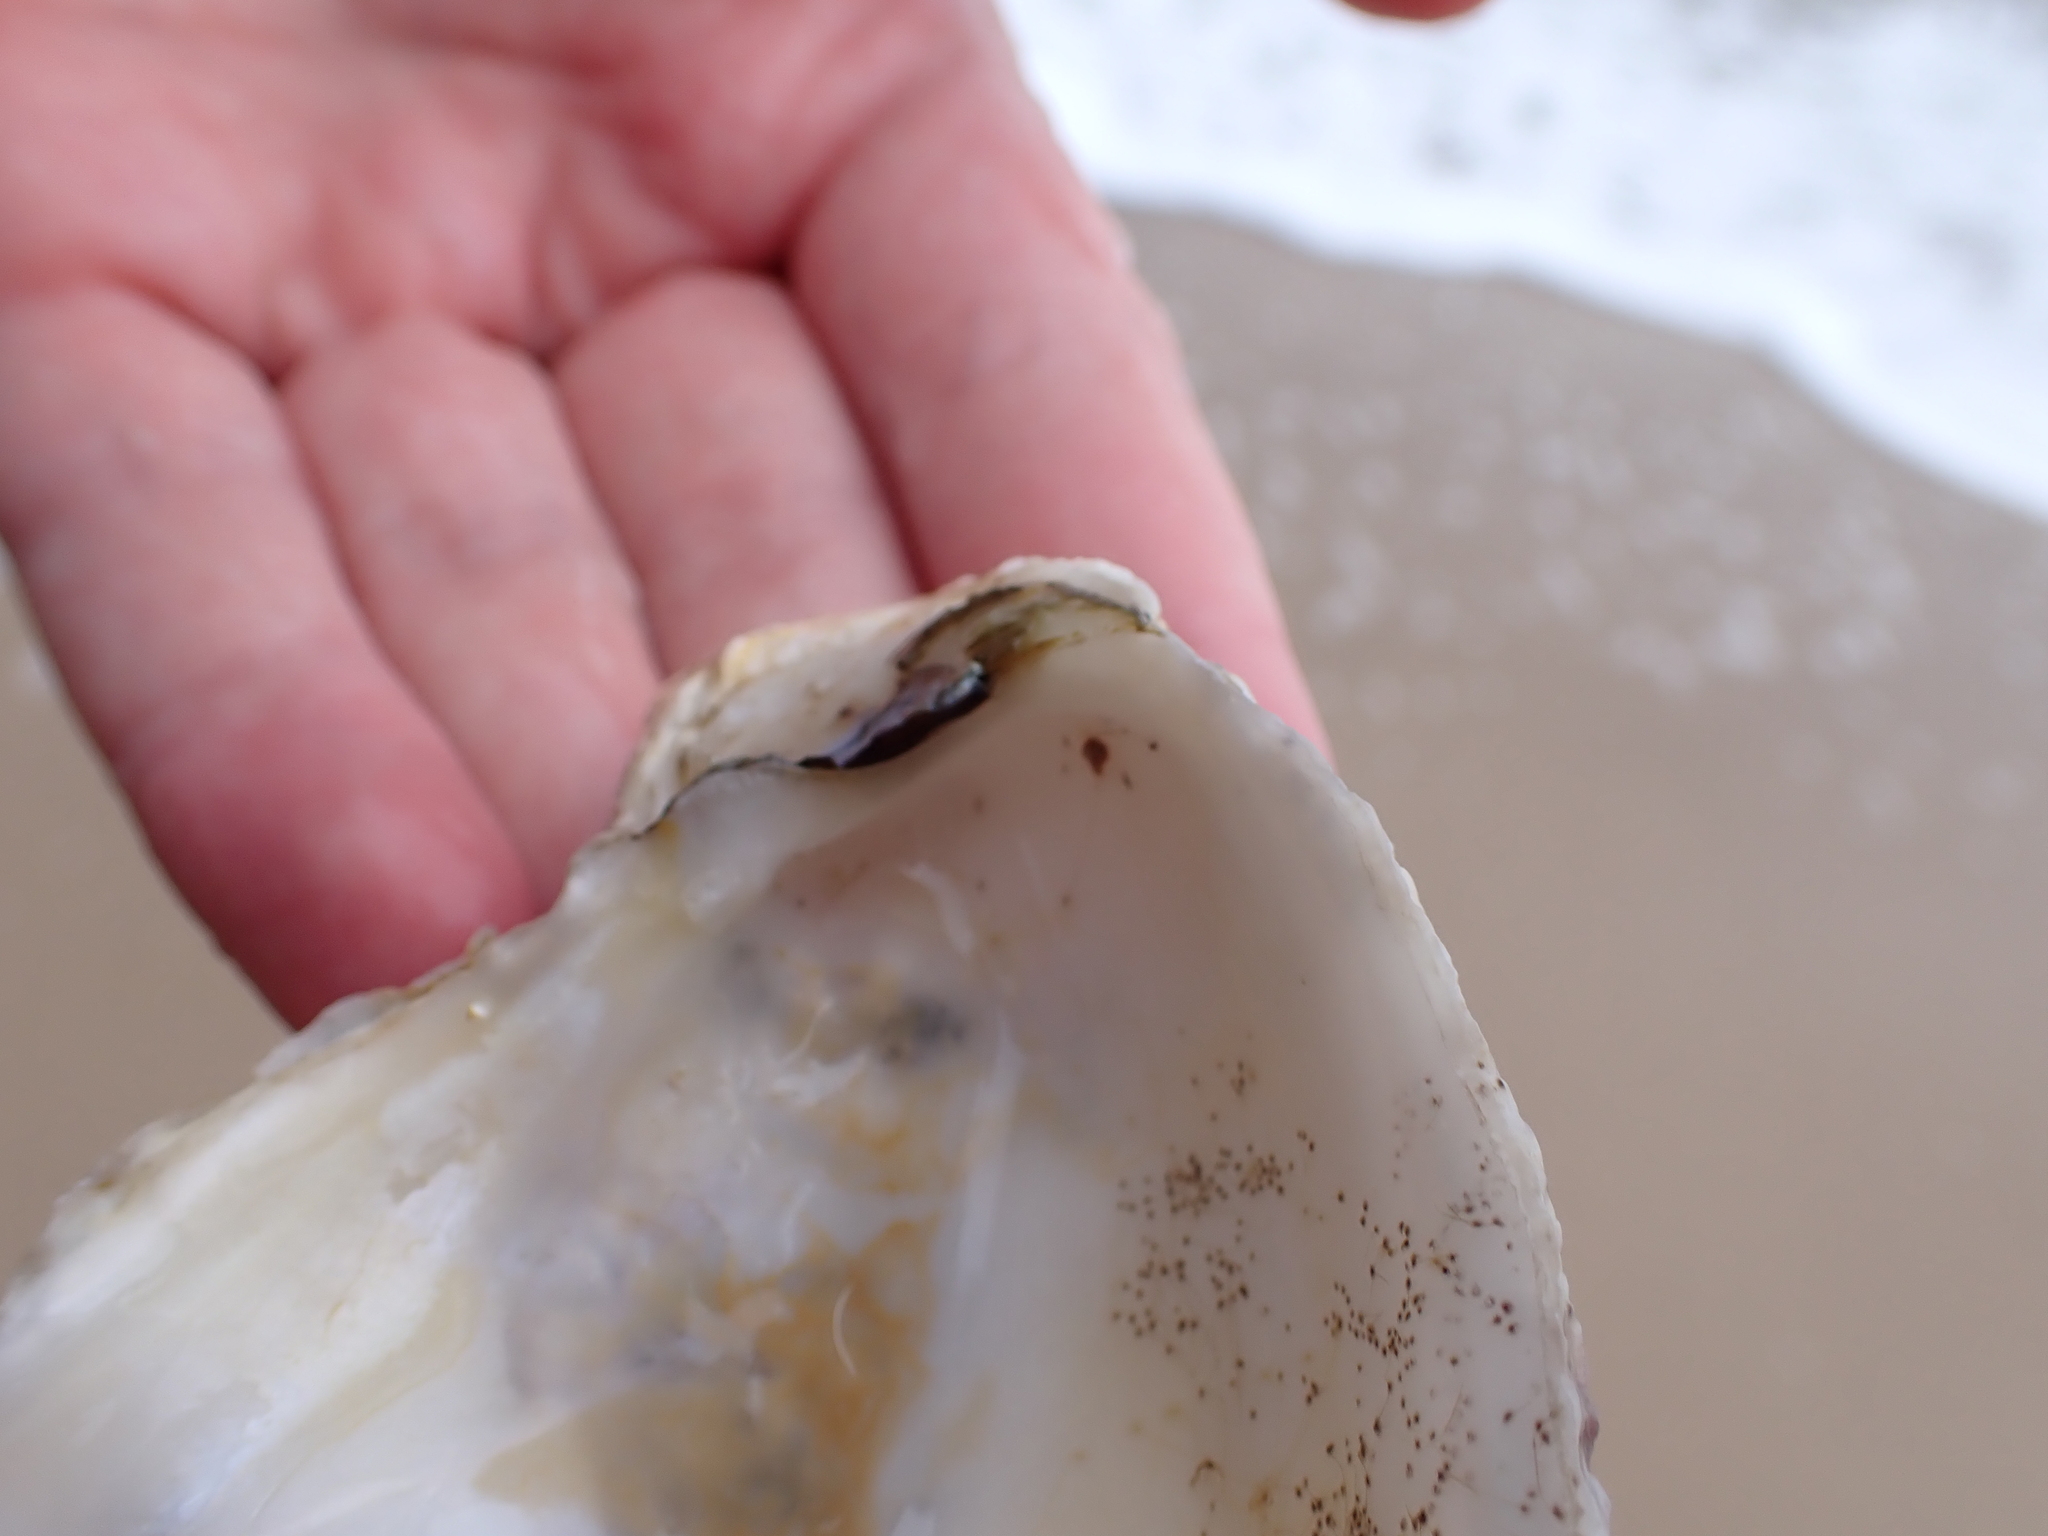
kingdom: Animalia
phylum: Mollusca
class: Bivalvia
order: Ostreida
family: Ostreidae
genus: Magallana
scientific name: Magallana gigas
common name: Pacific oyster
